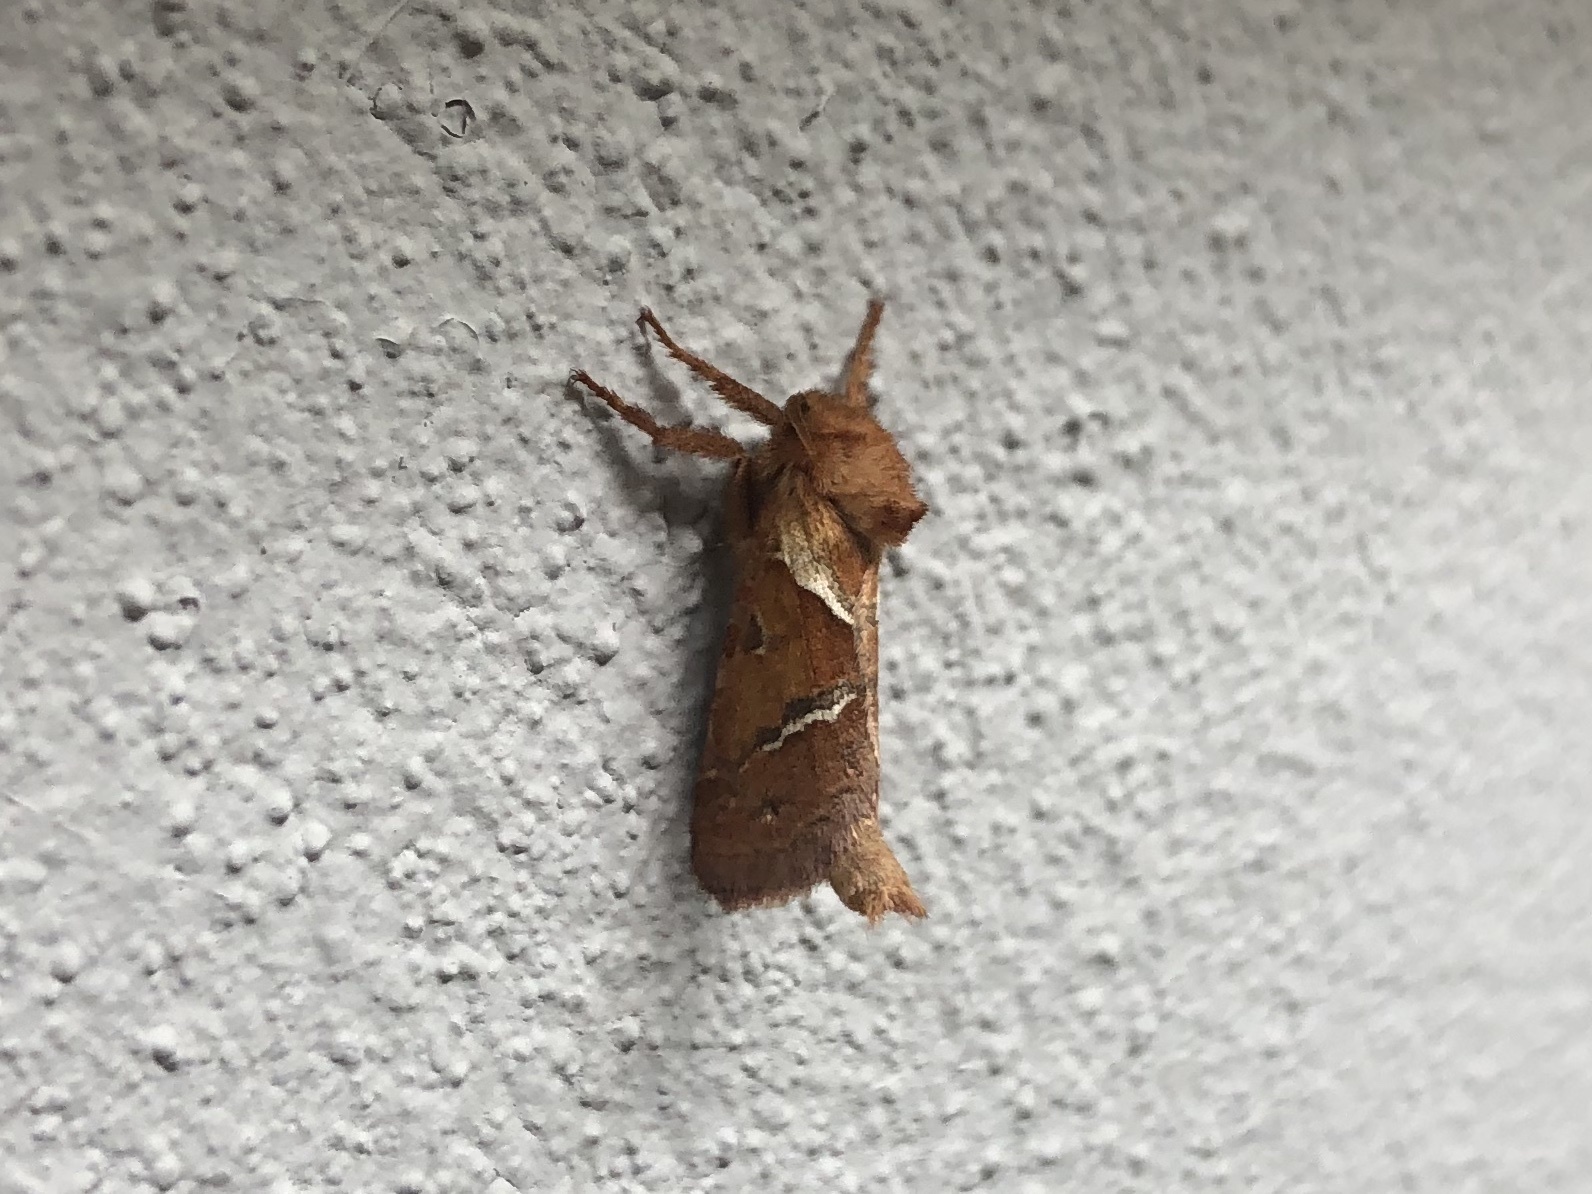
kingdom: Animalia
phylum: Arthropoda
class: Insecta
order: Lepidoptera
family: Hepialidae
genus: Triodia
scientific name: Triodia sylvina
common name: Orange swift
